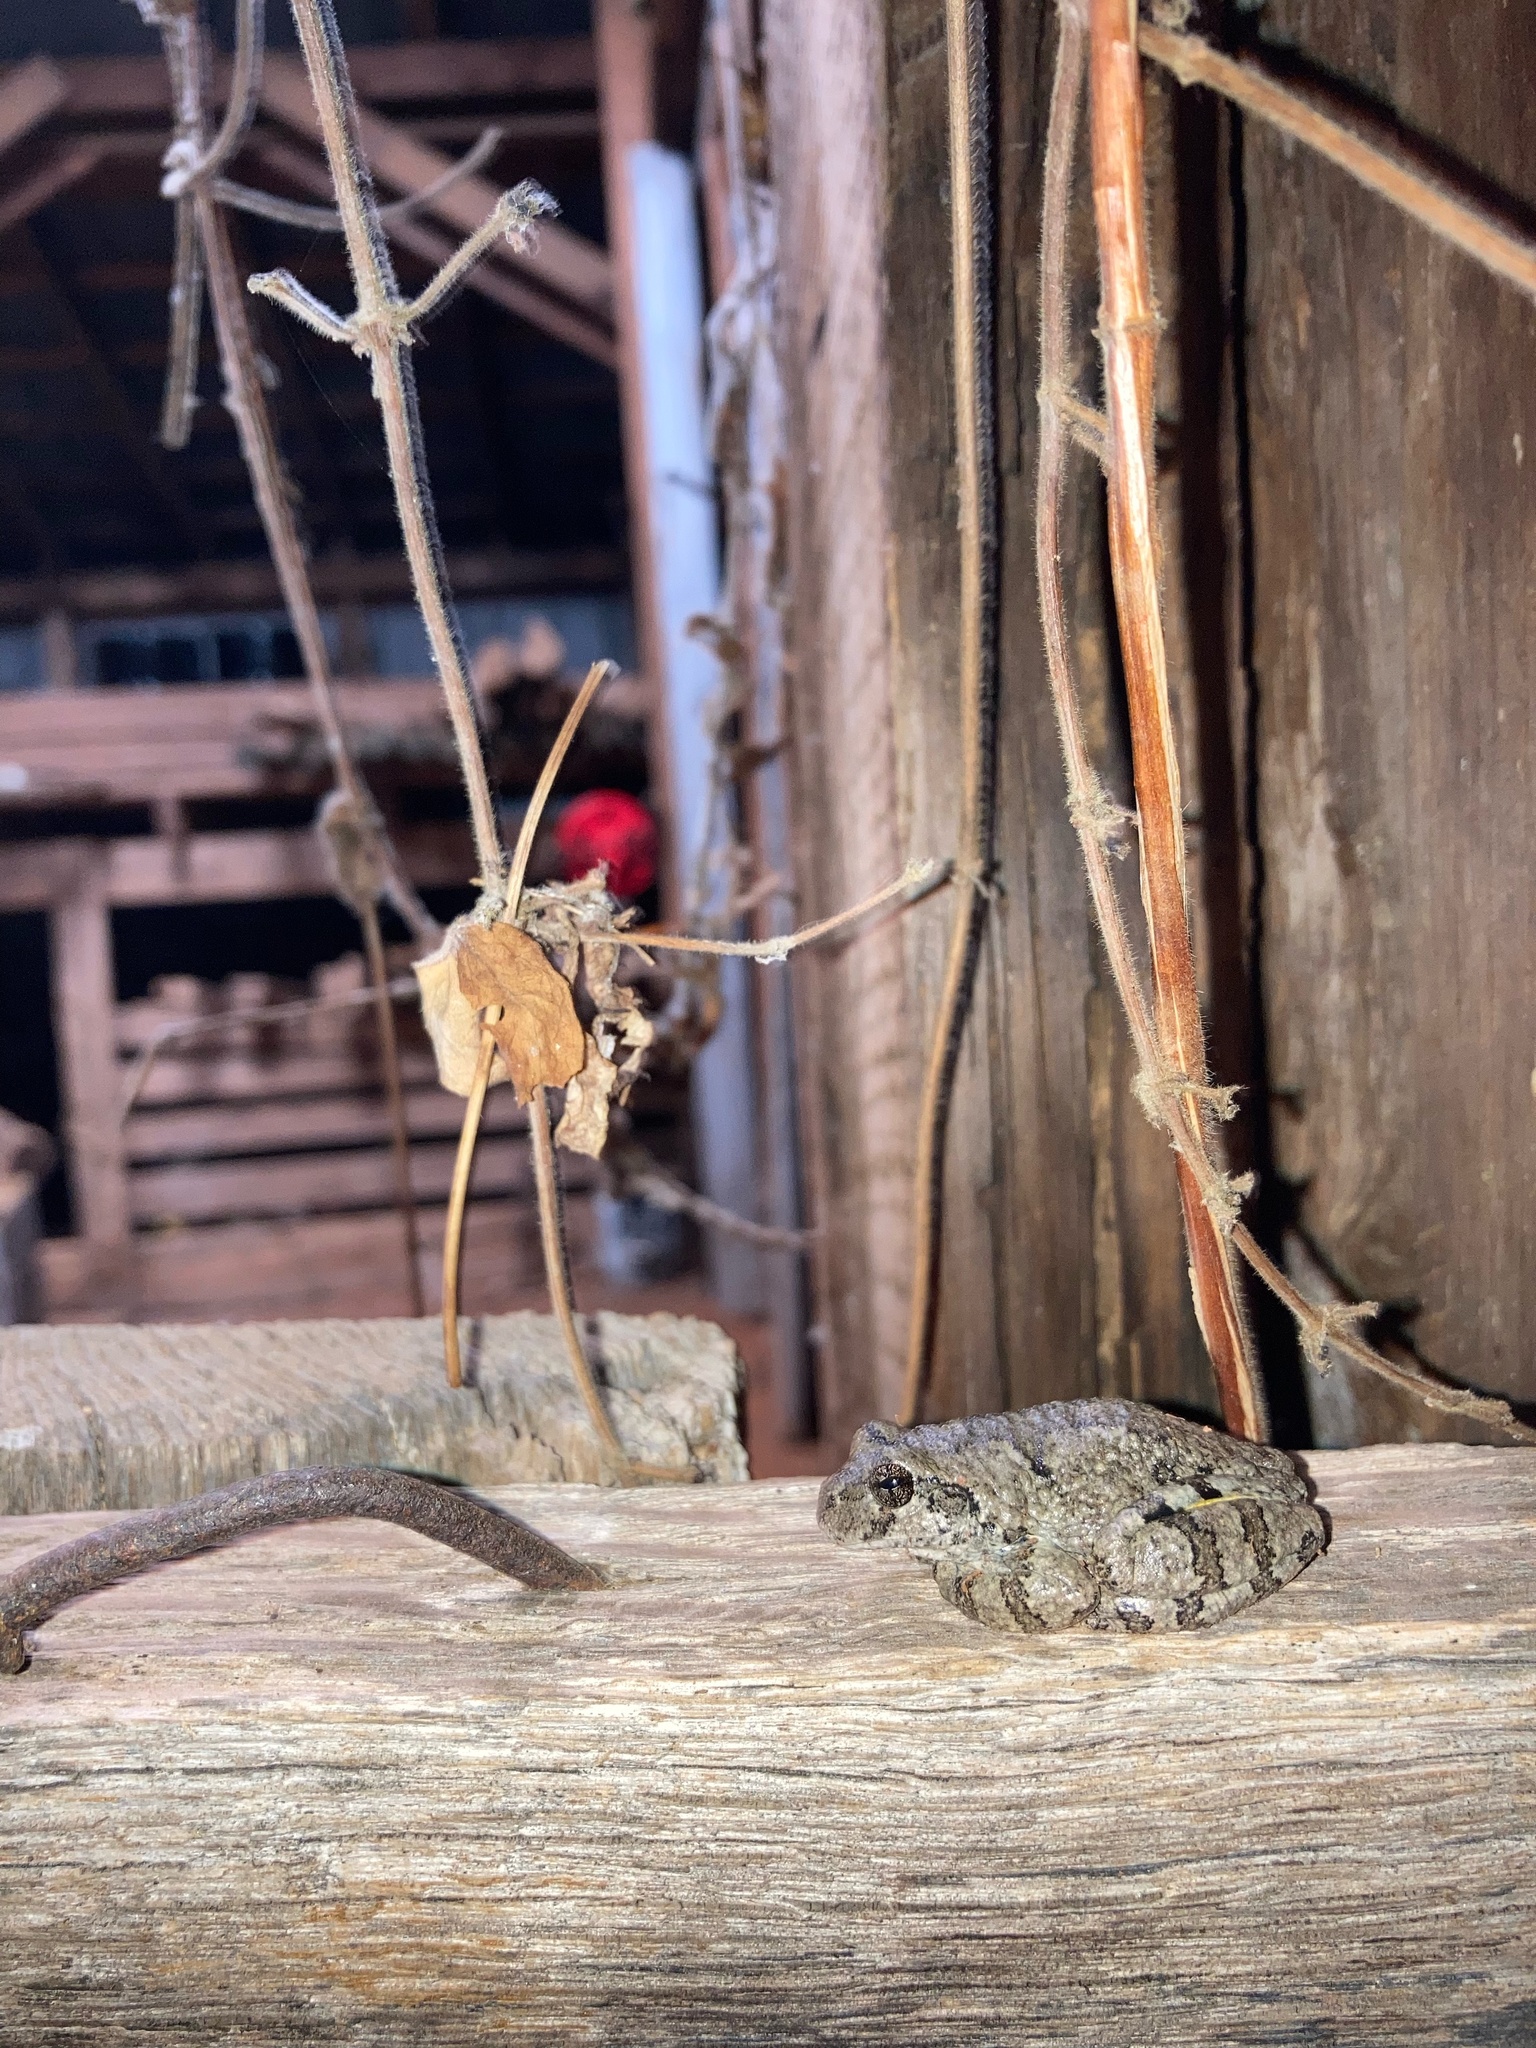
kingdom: Animalia
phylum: Chordata
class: Amphibia
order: Anura
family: Hylidae
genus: Dryophytes
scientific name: Dryophytes chrysoscelis
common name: Cope's gray treefrog
